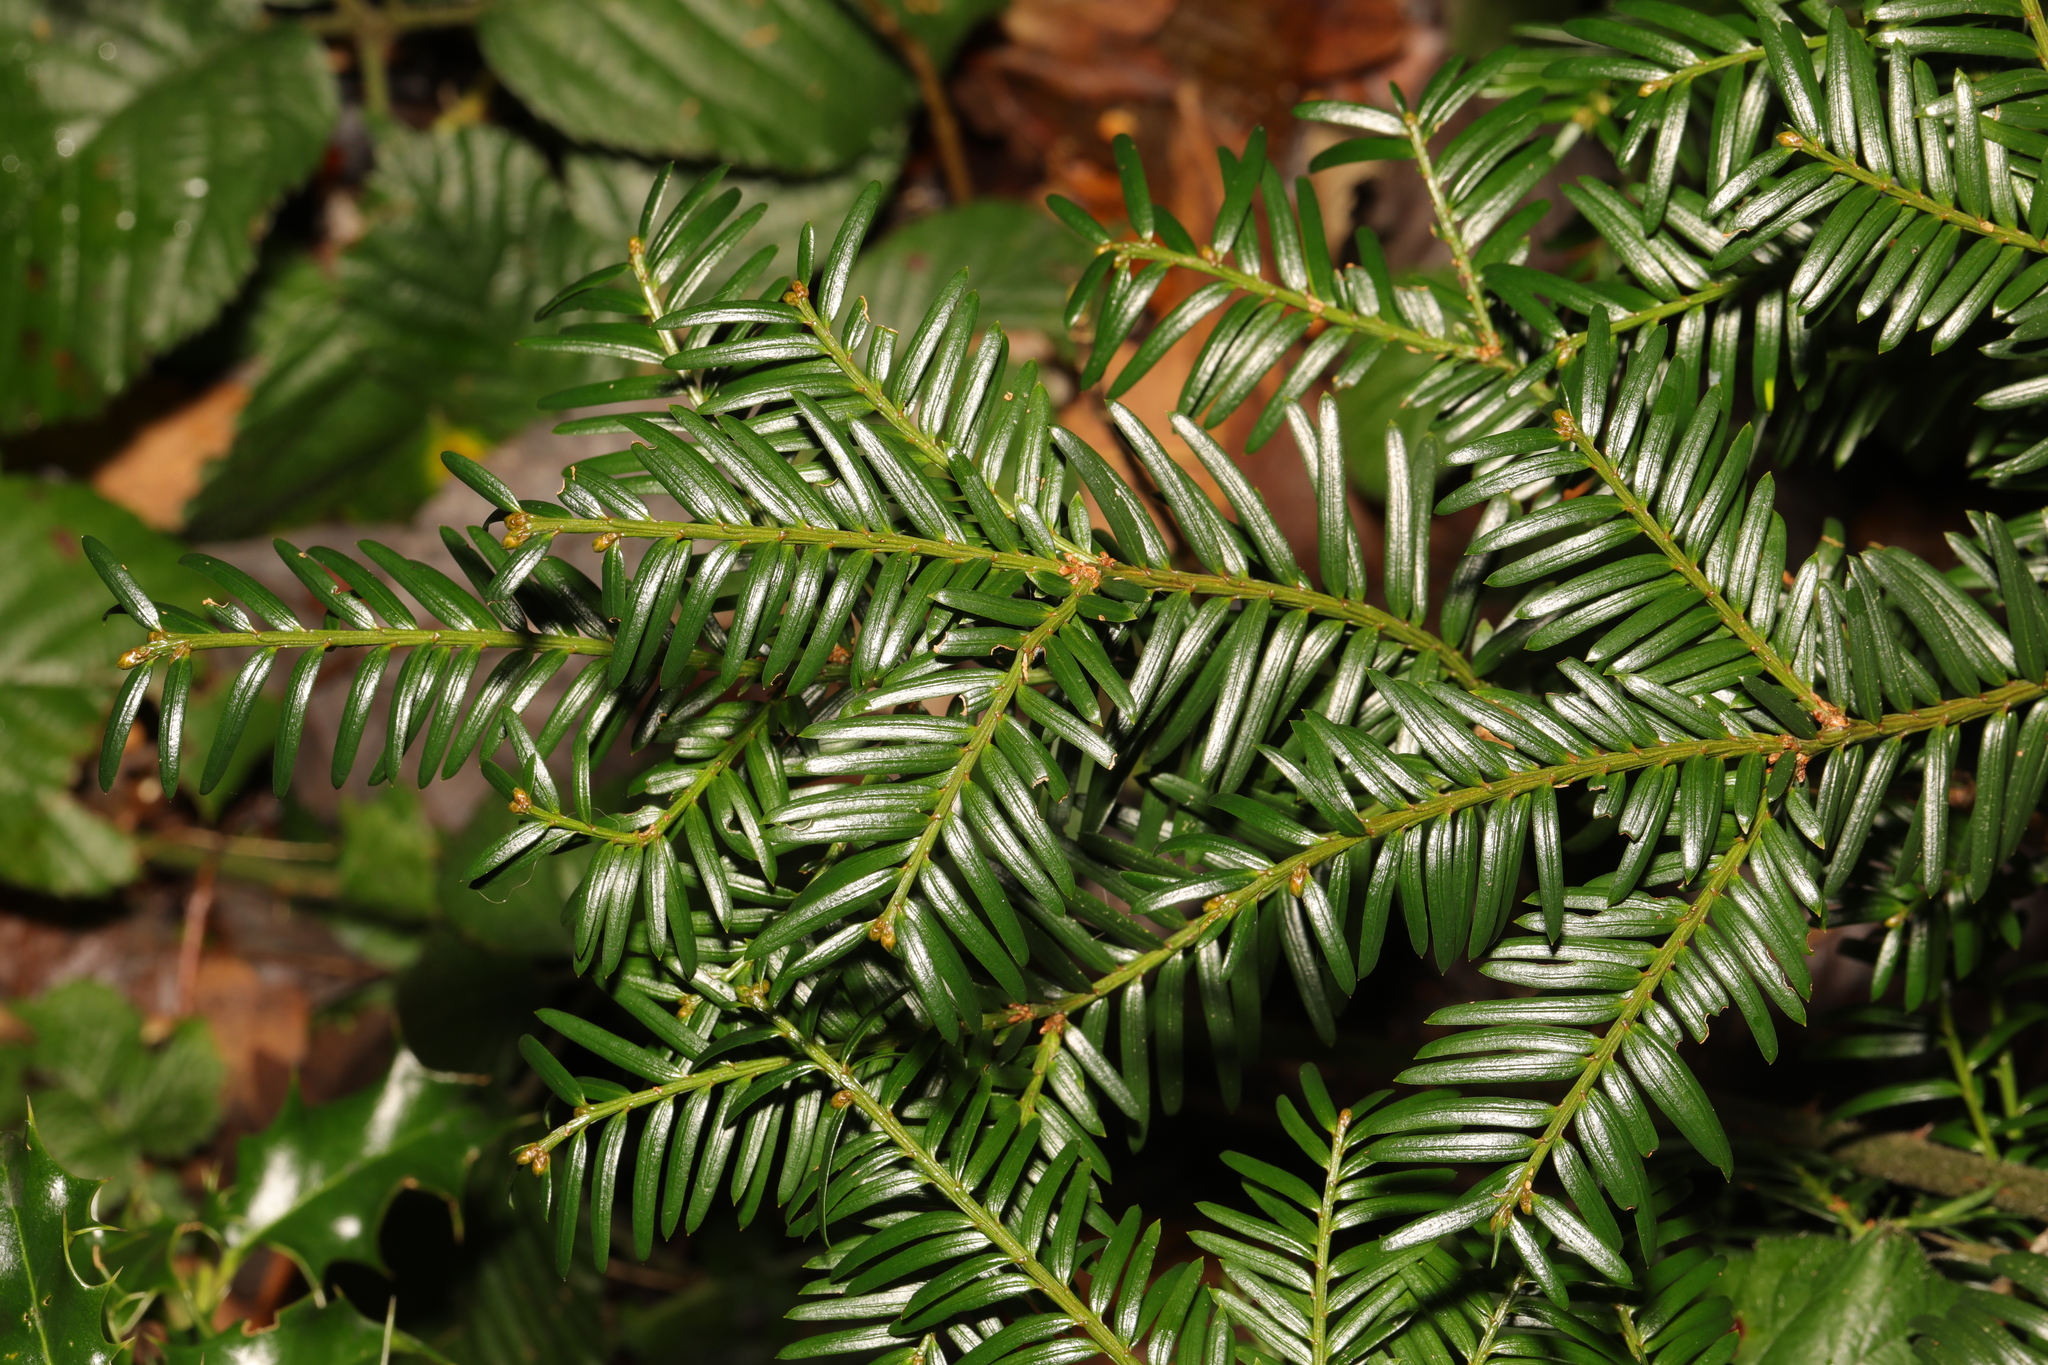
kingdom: Plantae
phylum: Tracheophyta
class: Pinopsida
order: Pinales
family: Taxaceae
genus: Taxus
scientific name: Taxus baccata
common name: Yew
